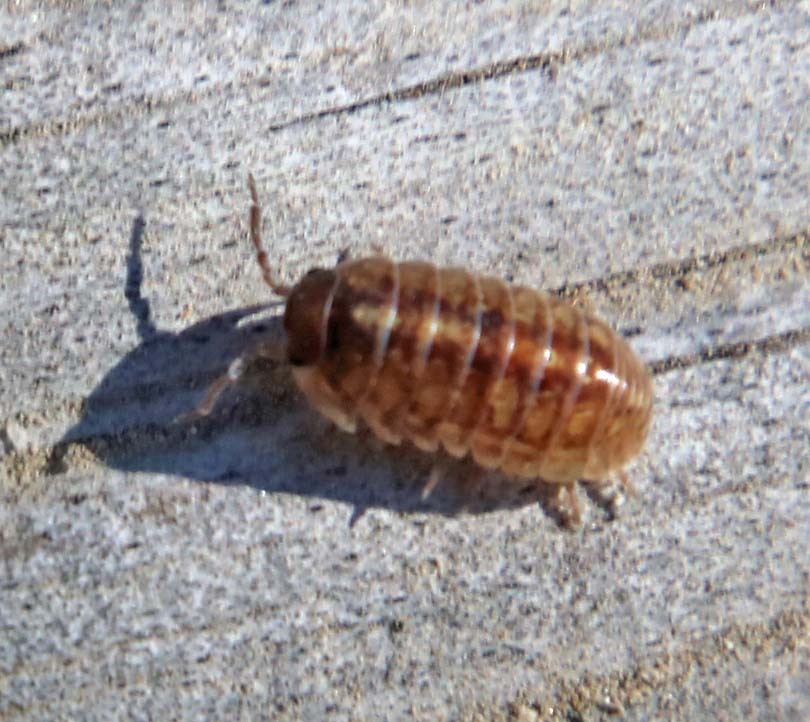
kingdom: Animalia
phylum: Arthropoda
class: Malacostraca
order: Isopoda
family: Armadillidiidae
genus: Armadillidium
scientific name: Armadillidium vulgare
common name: Common pill woodlouse
